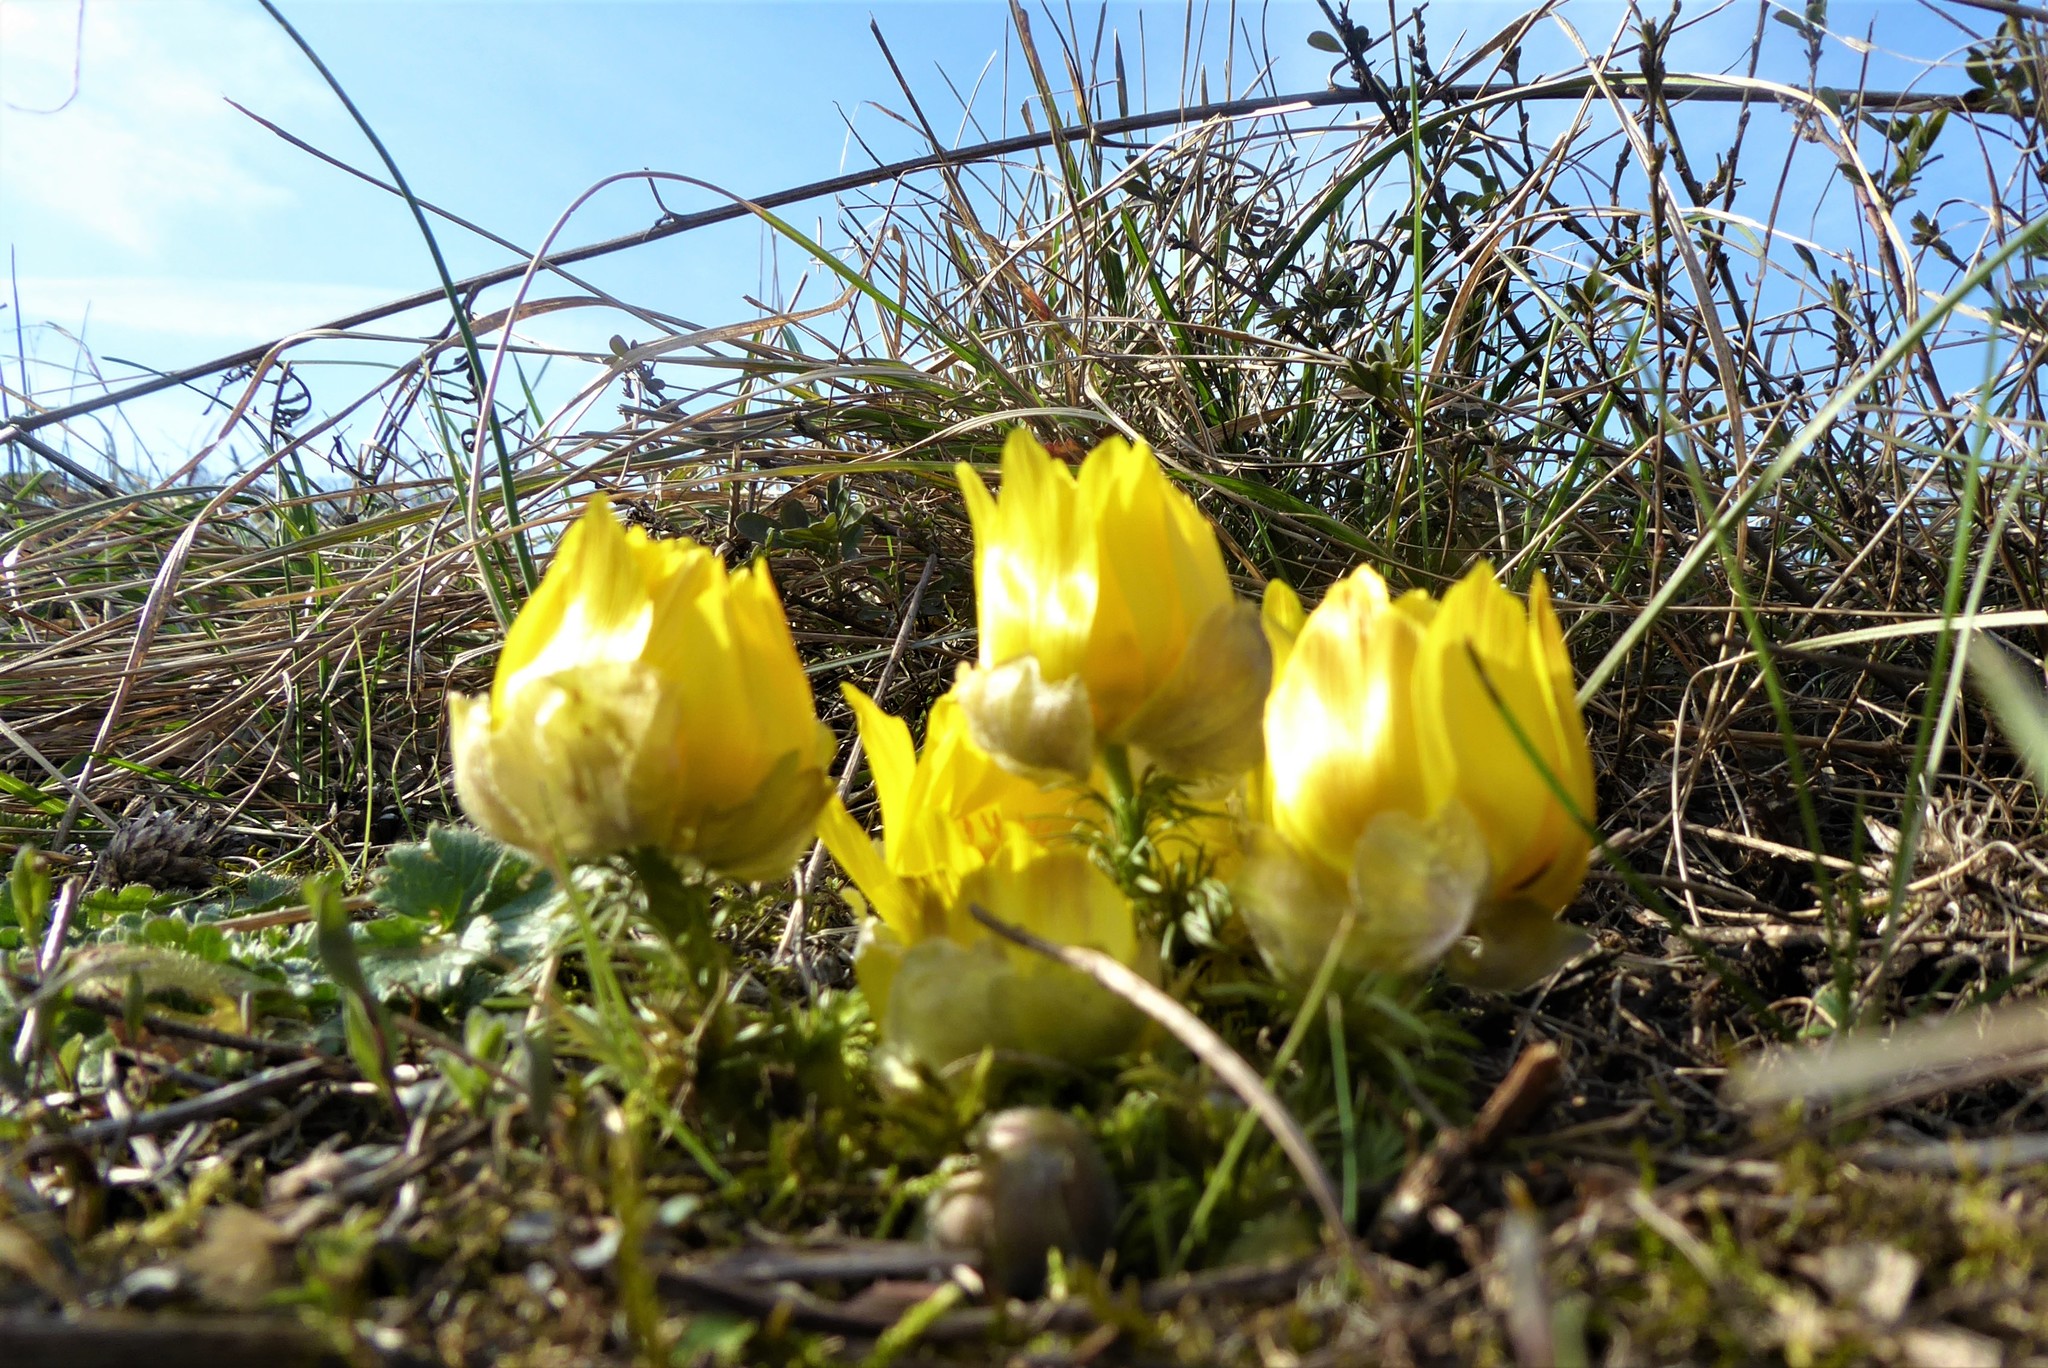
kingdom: Plantae
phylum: Tracheophyta
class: Magnoliopsida
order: Ranunculales
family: Ranunculaceae
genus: Adonis
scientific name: Adonis vernalis
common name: Yellow pheasants-eye
